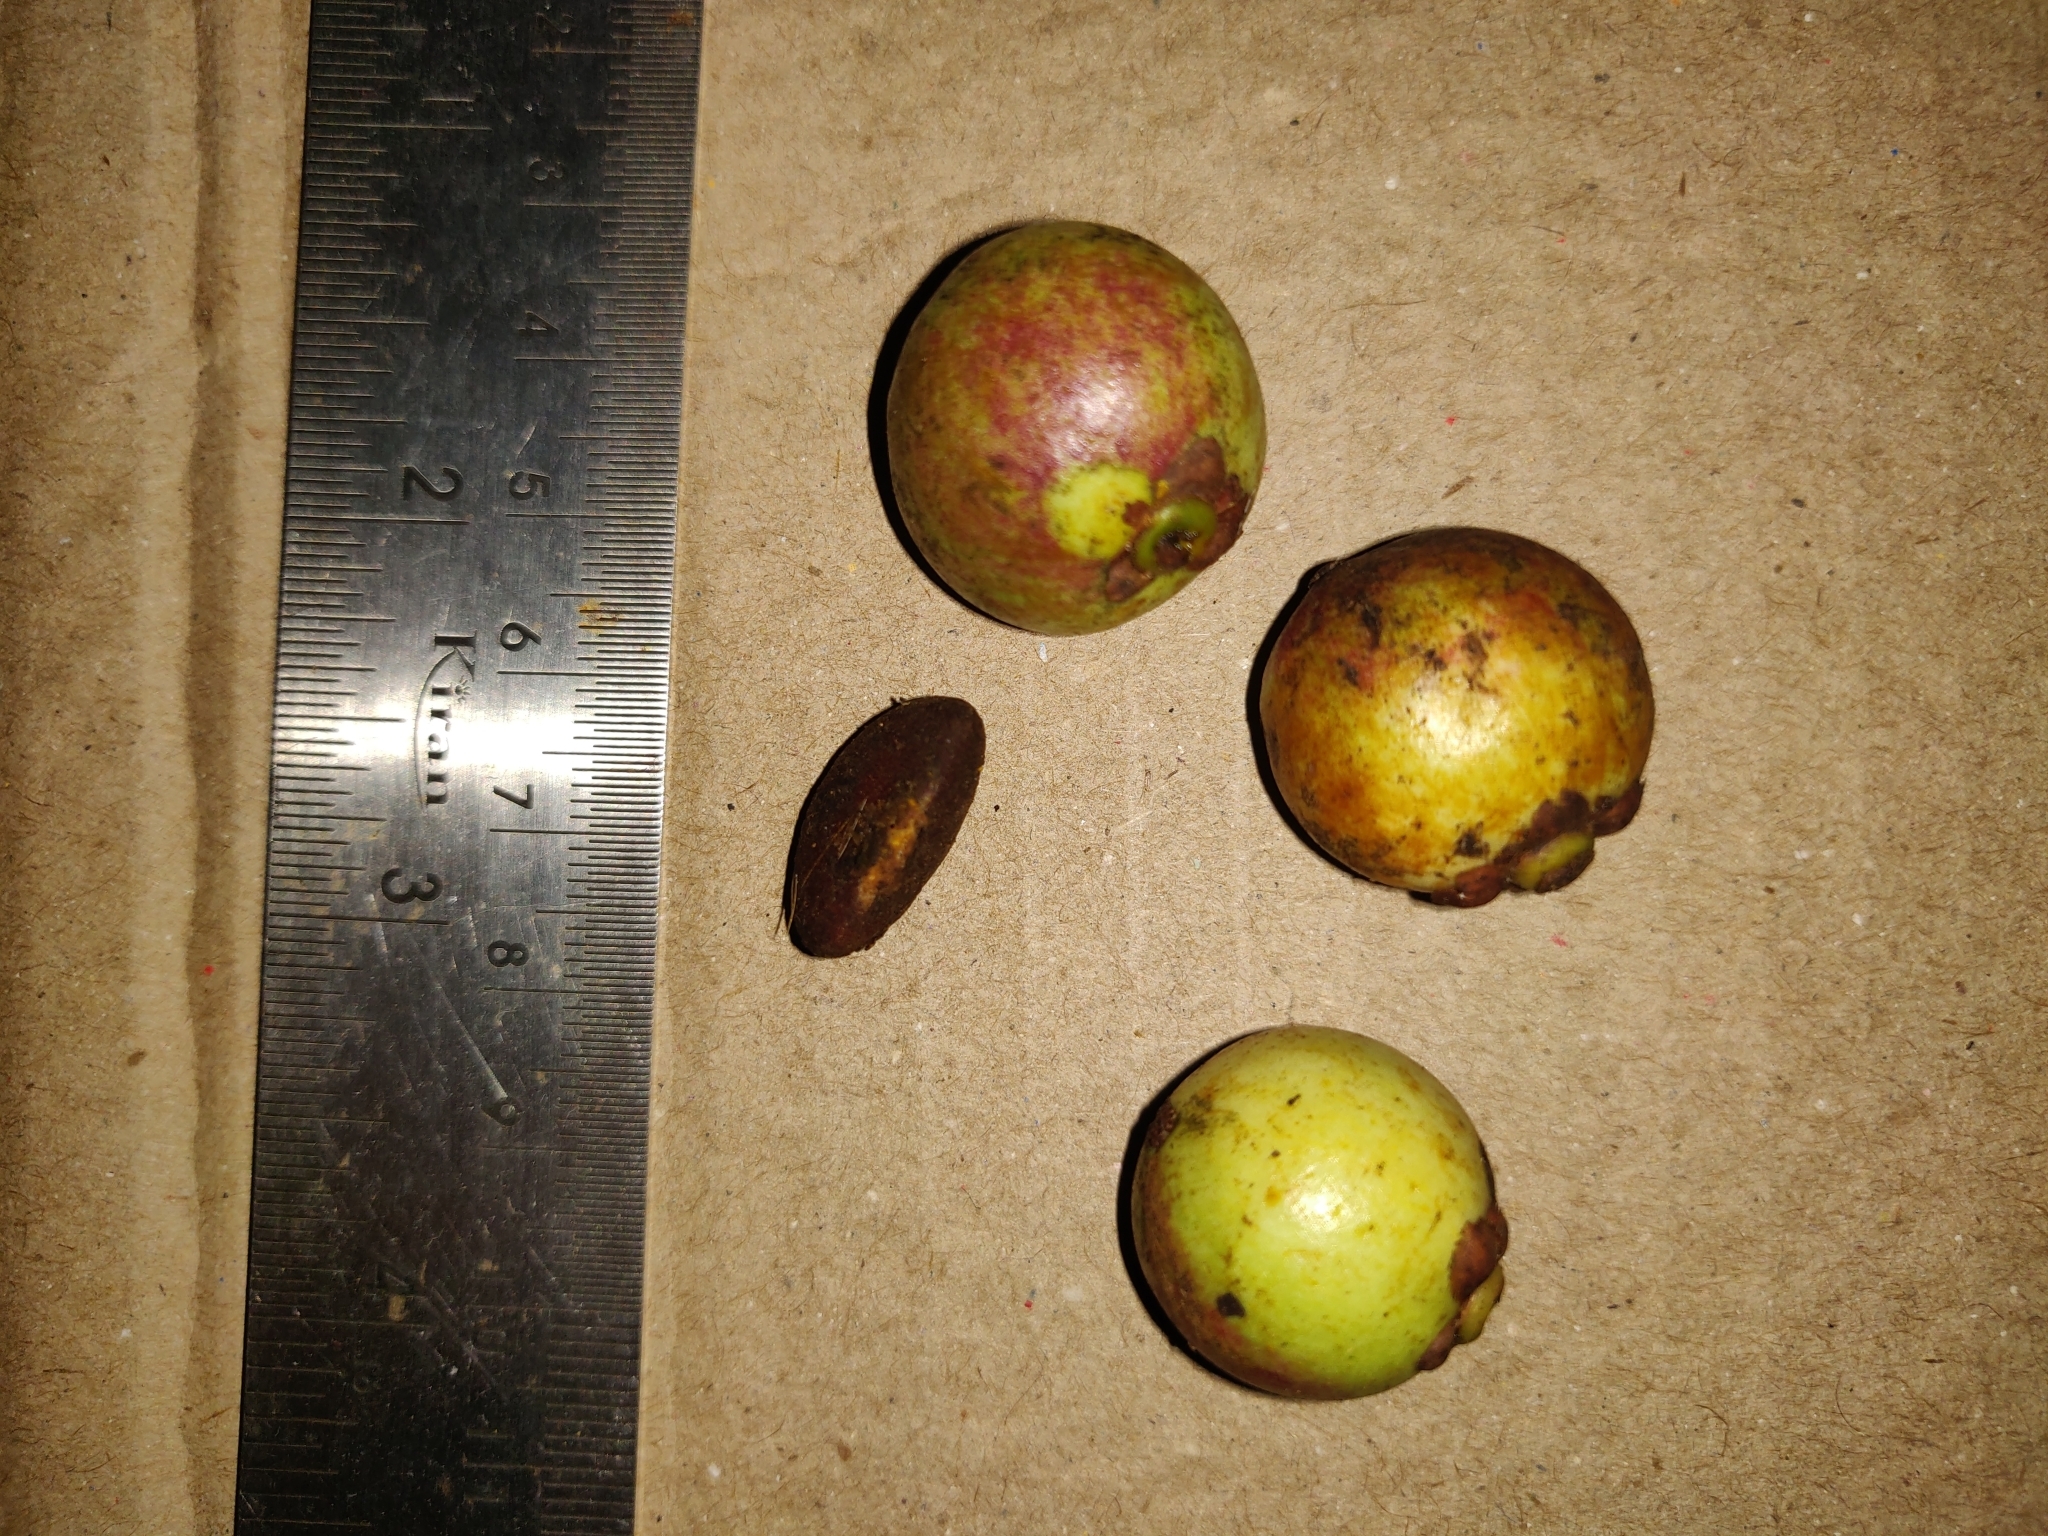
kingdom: Plantae
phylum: Tracheophyta
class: Magnoliopsida
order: Malpighiales
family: Clusiaceae
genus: Garcinia
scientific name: Garcinia morella
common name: Indian gamboge-tree
